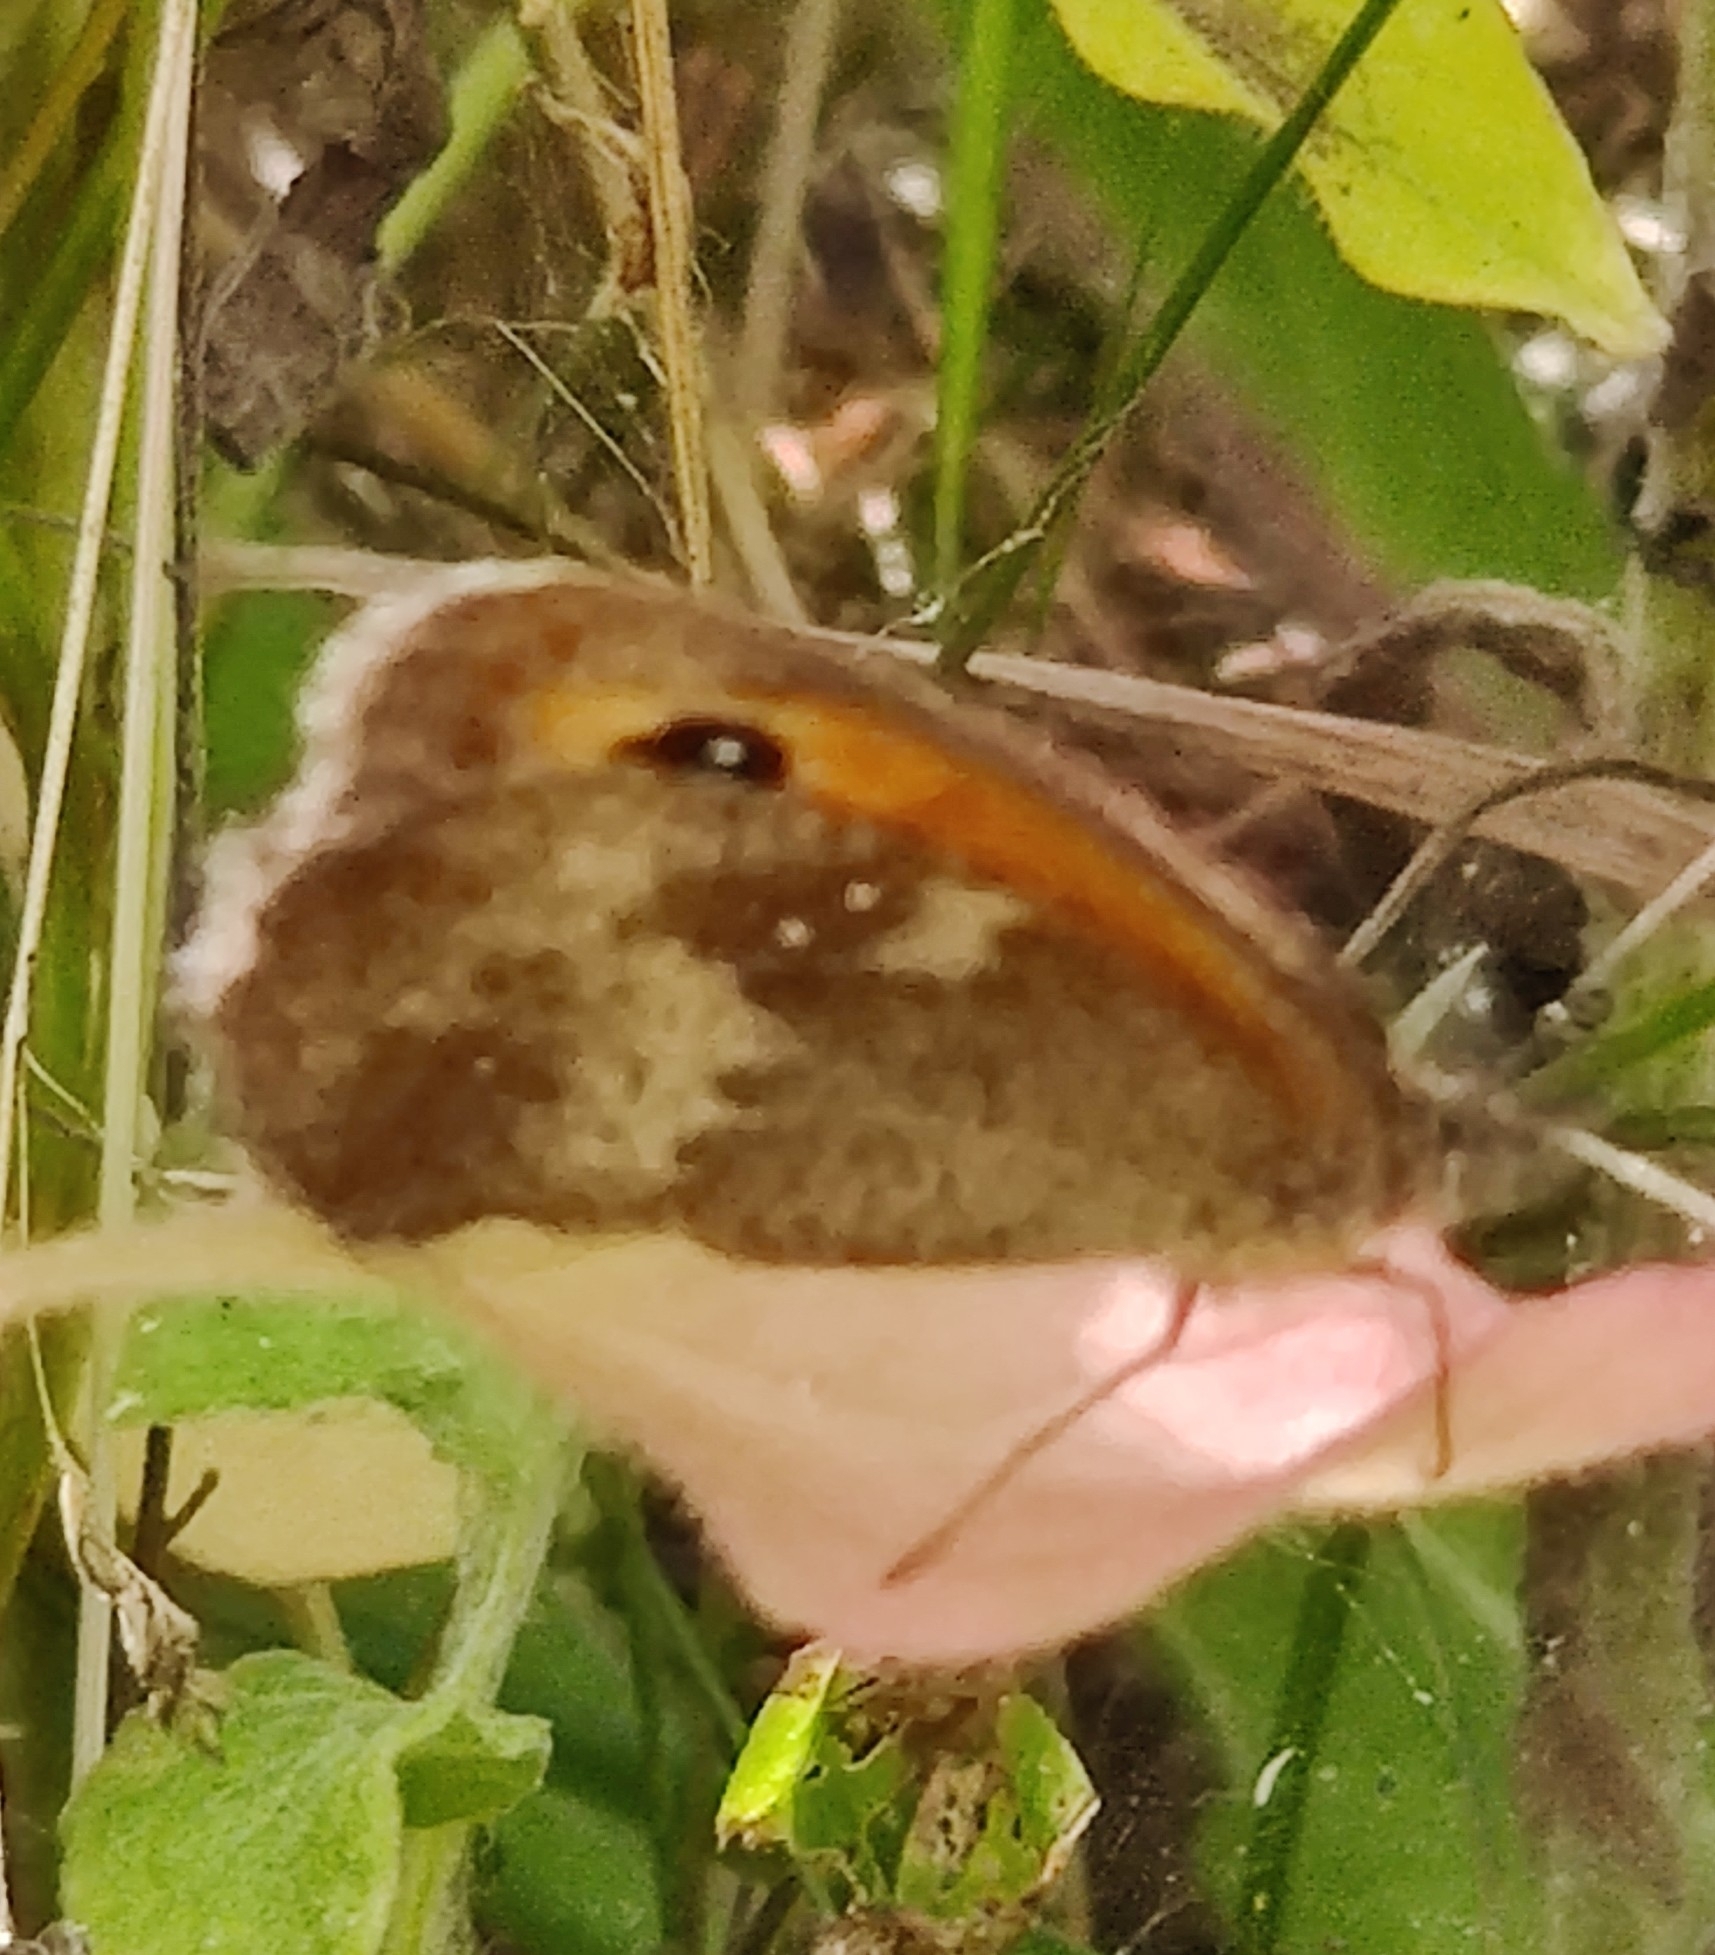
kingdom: Animalia
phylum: Arthropoda
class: Insecta
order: Lepidoptera
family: Nymphalidae
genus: Pyronia
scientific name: Pyronia tithonus
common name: Gatekeeper
